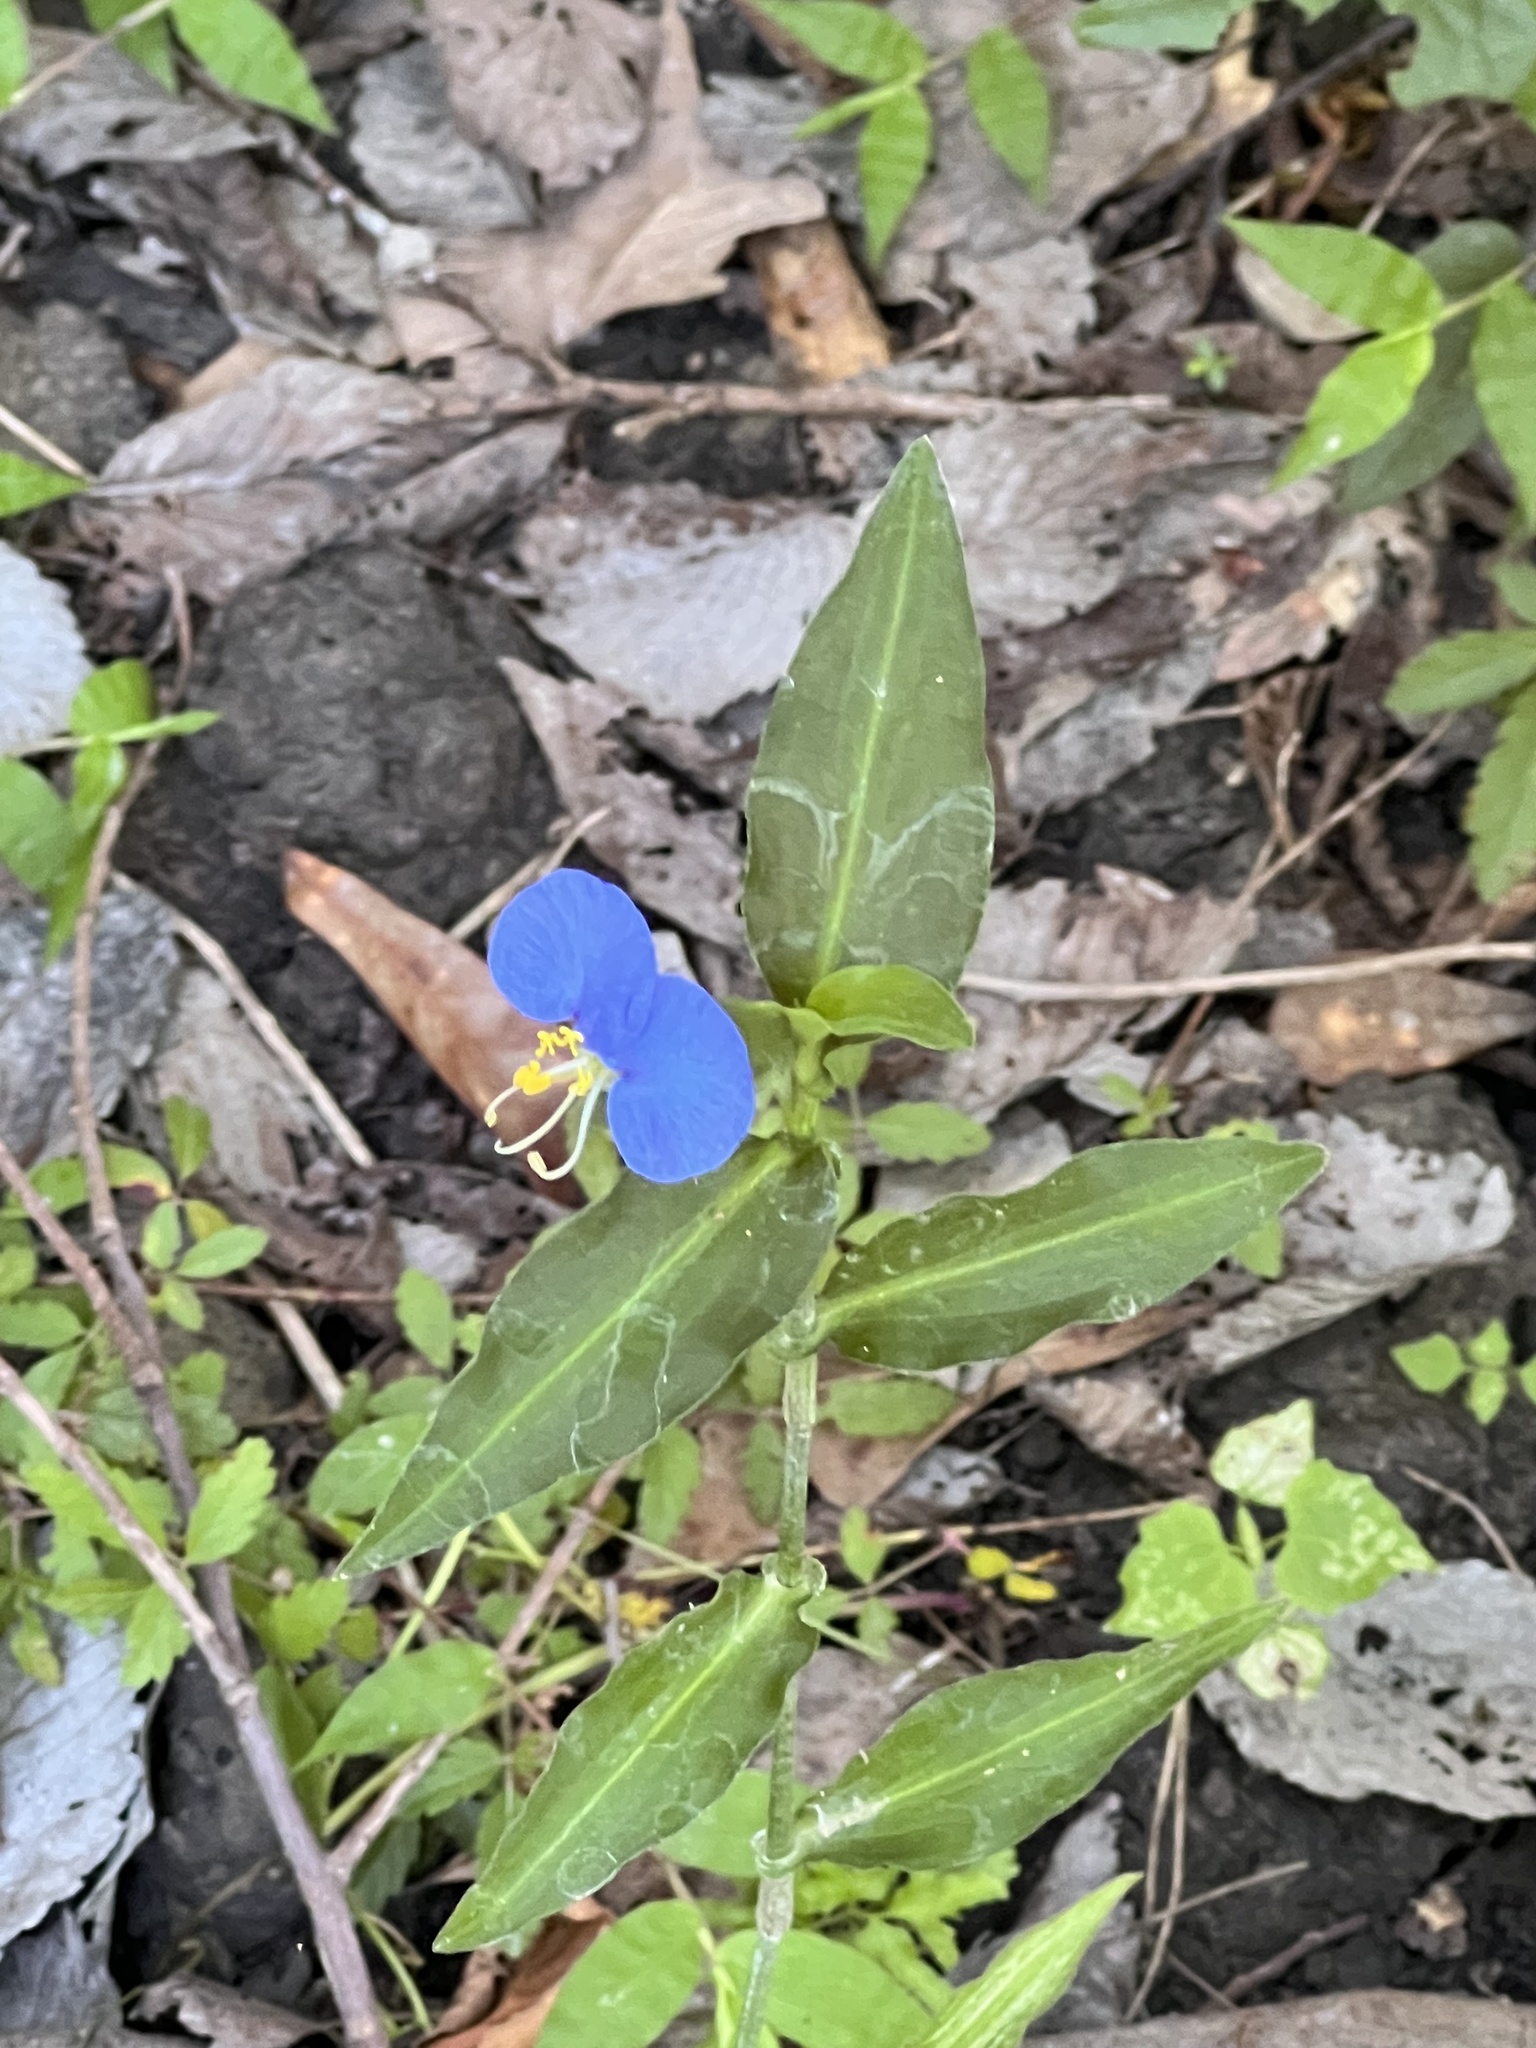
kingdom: Plantae
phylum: Tracheophyta
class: Liliopsida
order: Commelinales
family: Commelinaceae
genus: Commelina
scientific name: Commelina erecta
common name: Blousel blommetjie
